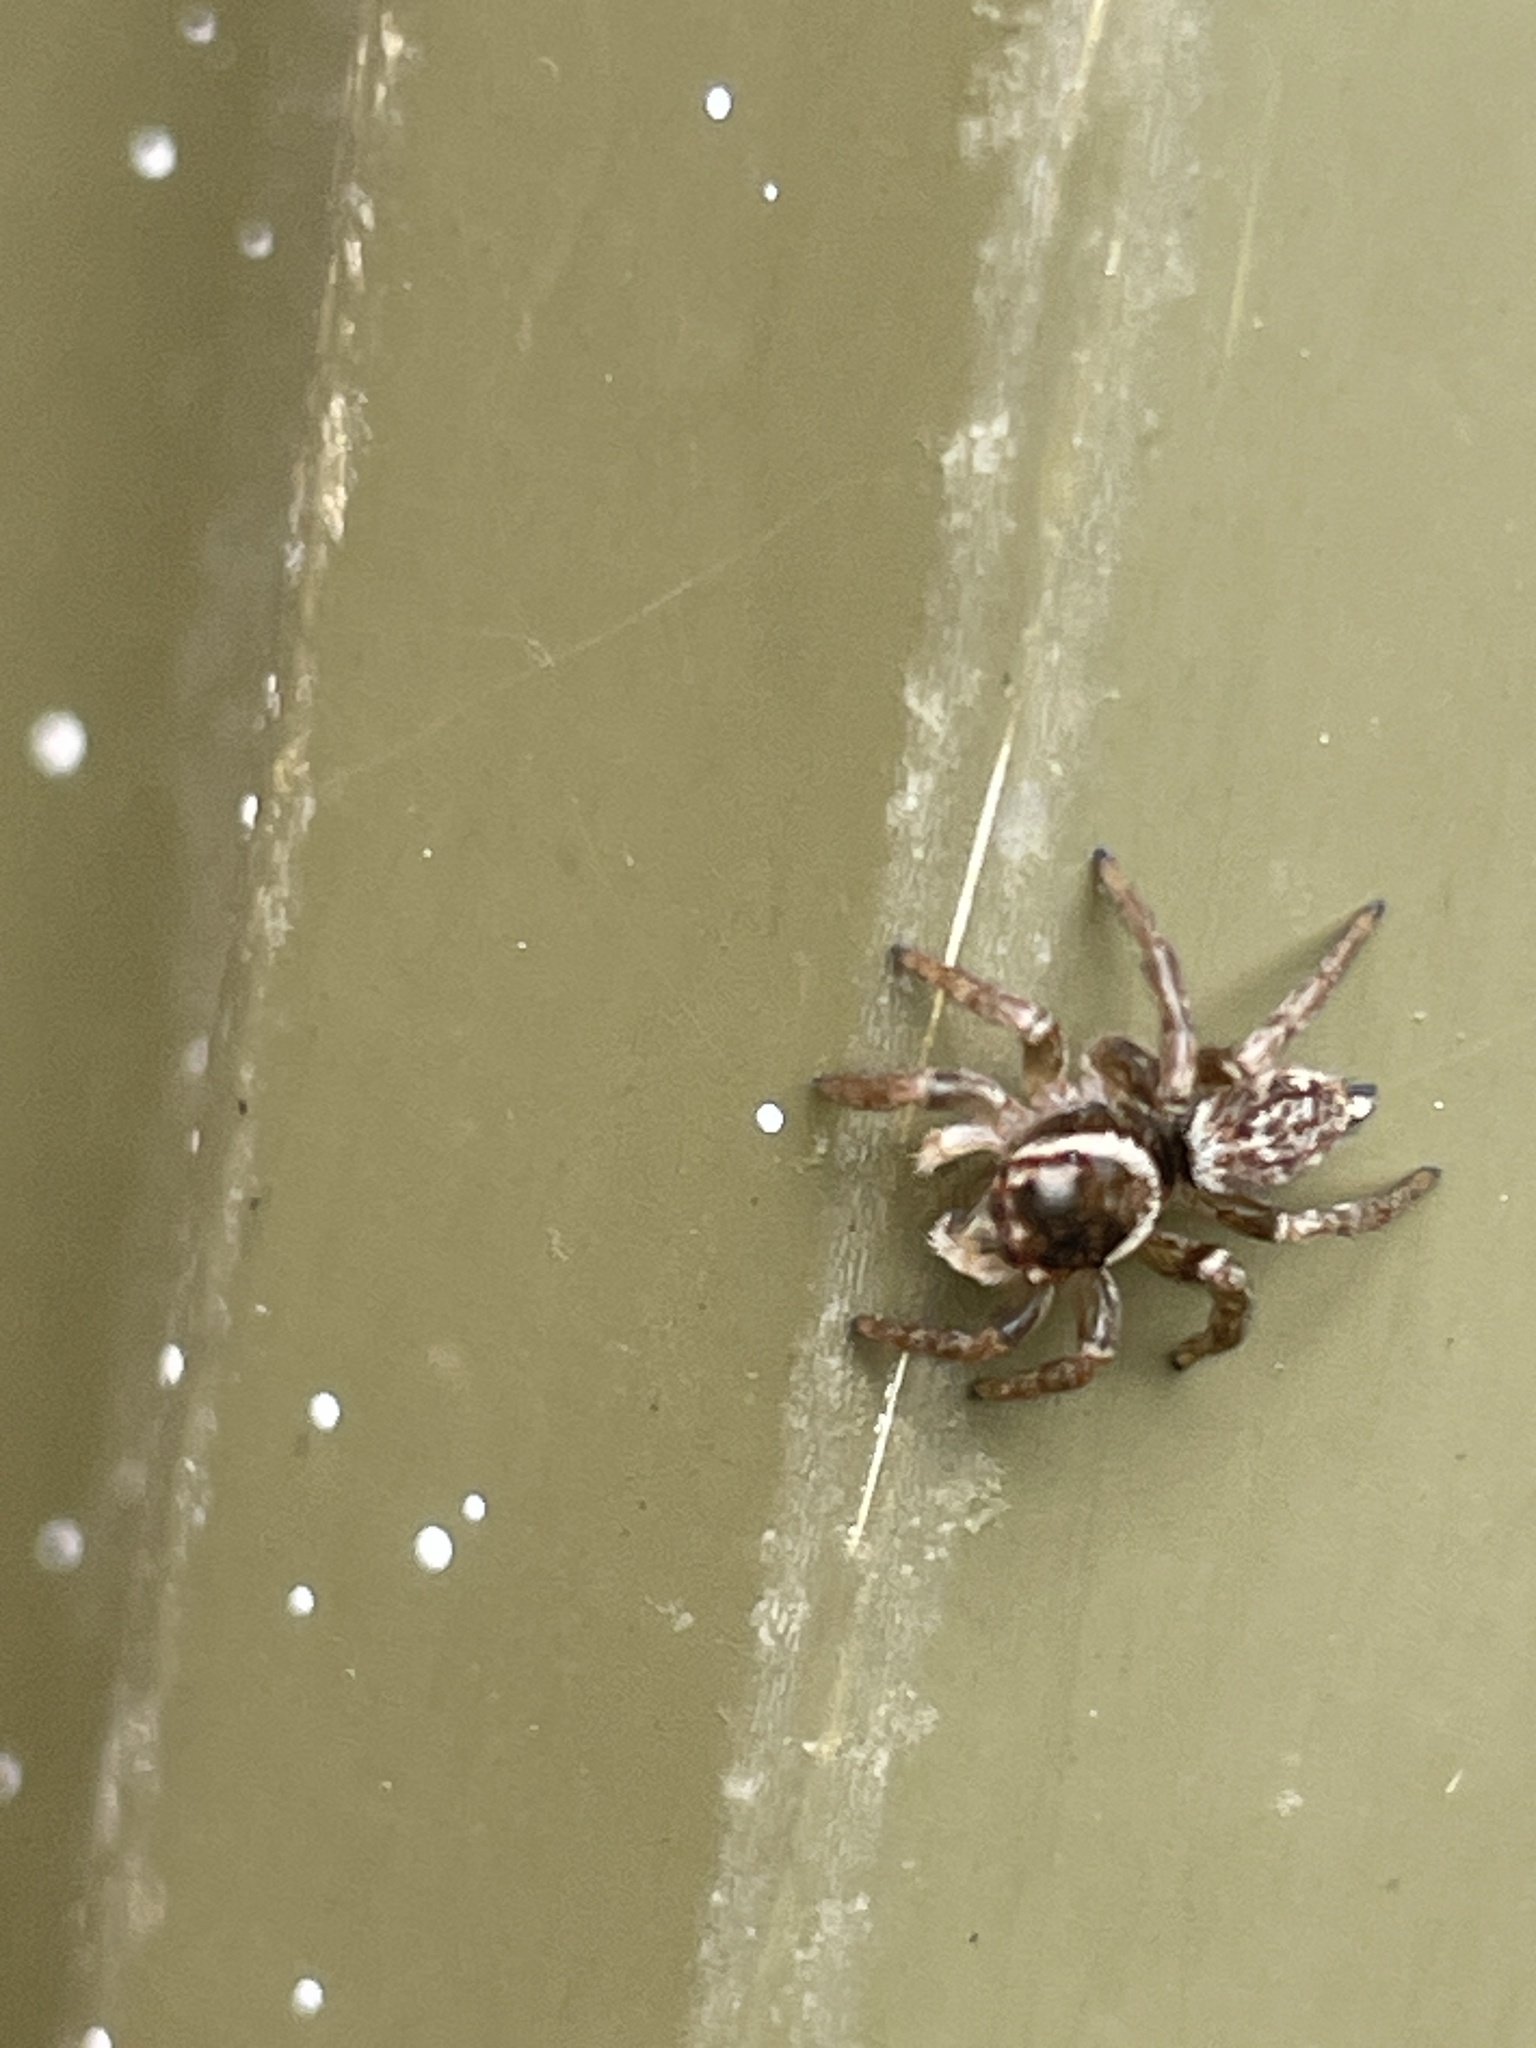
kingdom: Animalia
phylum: Arthropoda
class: Arachnida
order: Araneae
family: Salticidae
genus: Maratus
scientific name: Maratus griseus
